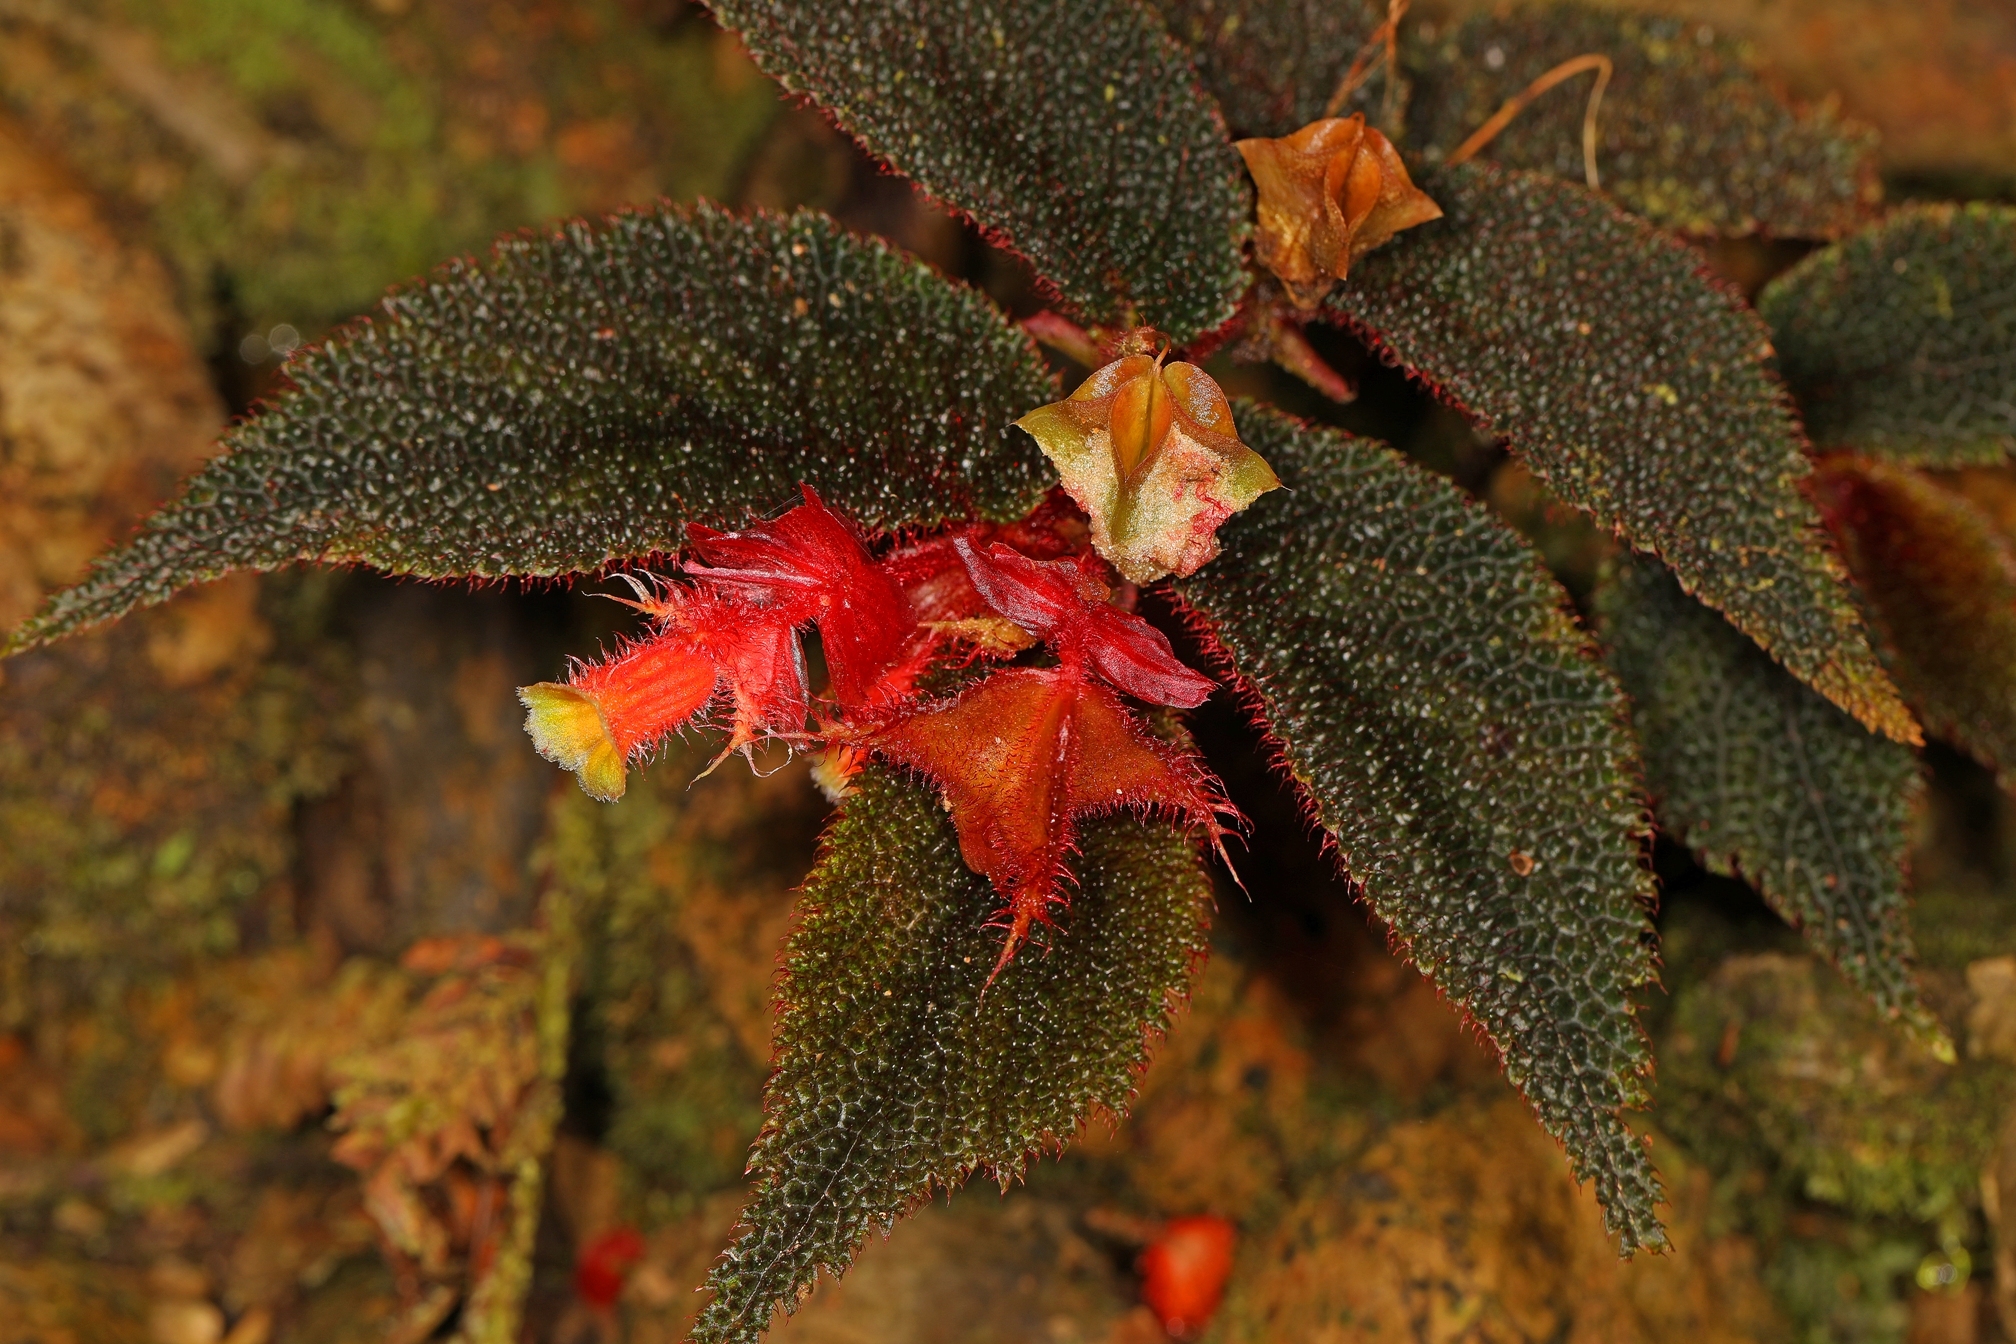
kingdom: Plantae
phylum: Tracheophyta
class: Magnoliopsida
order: Cucurbitales
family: Begoniaceae
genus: Begonia
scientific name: Begonia lehmannii
